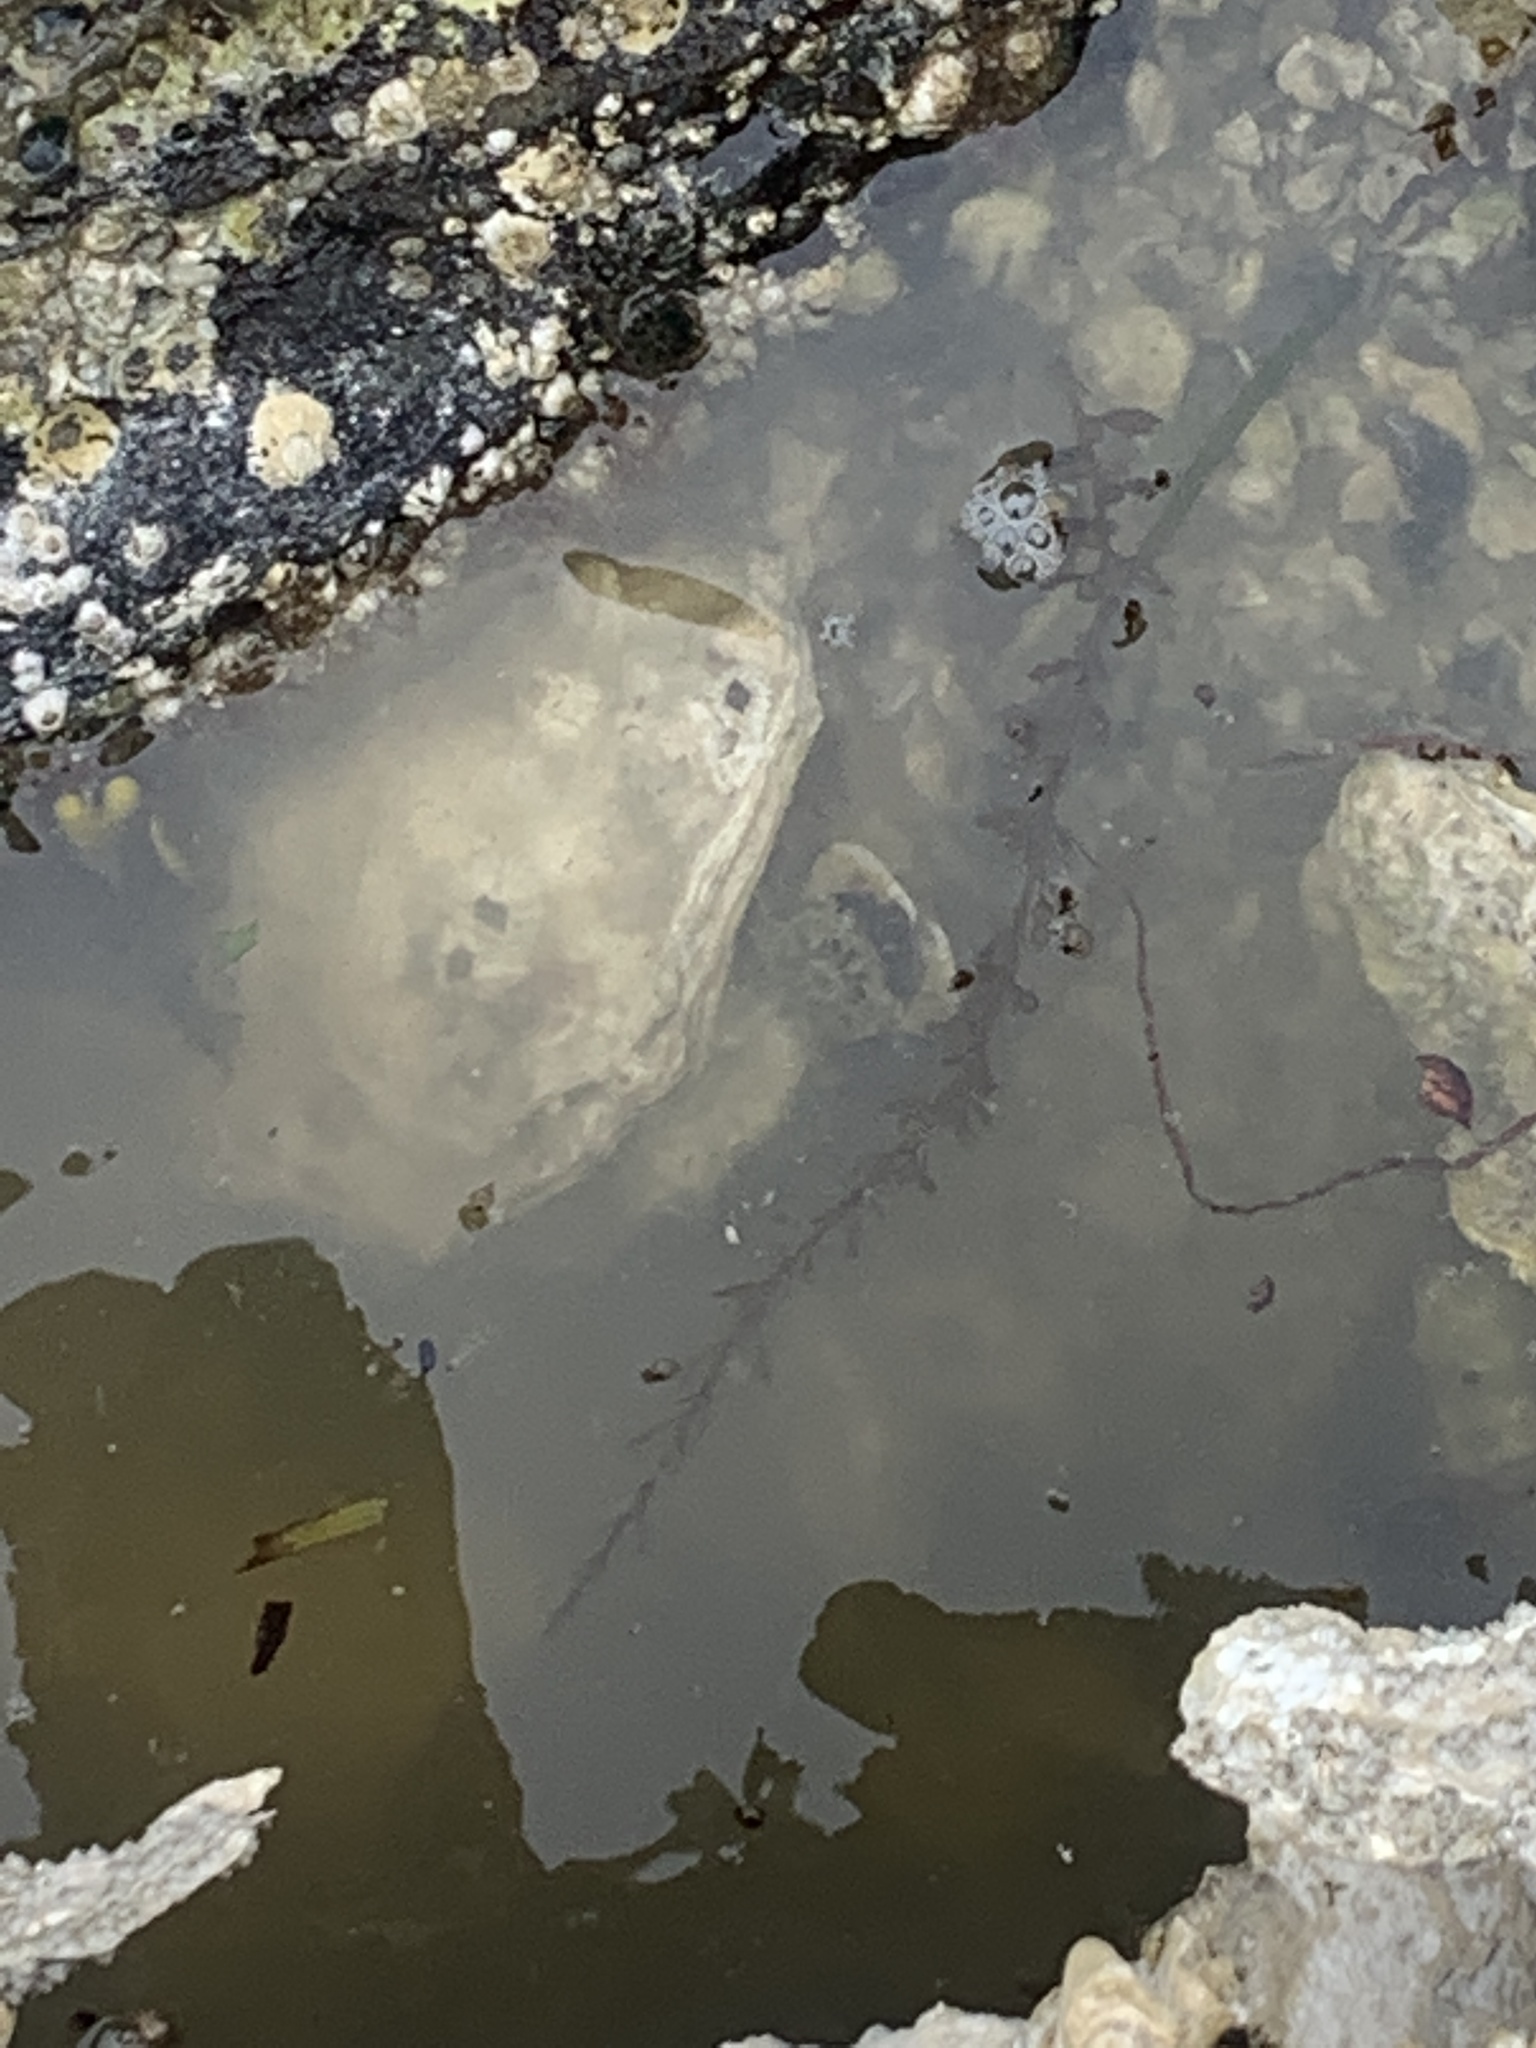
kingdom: Animalia
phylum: Arthropoda
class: Malacostraca
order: Decapoda
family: Varunidae
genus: Hemigrapsus
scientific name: Hemigrapsus oregonensis
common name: Yellow shore crab
